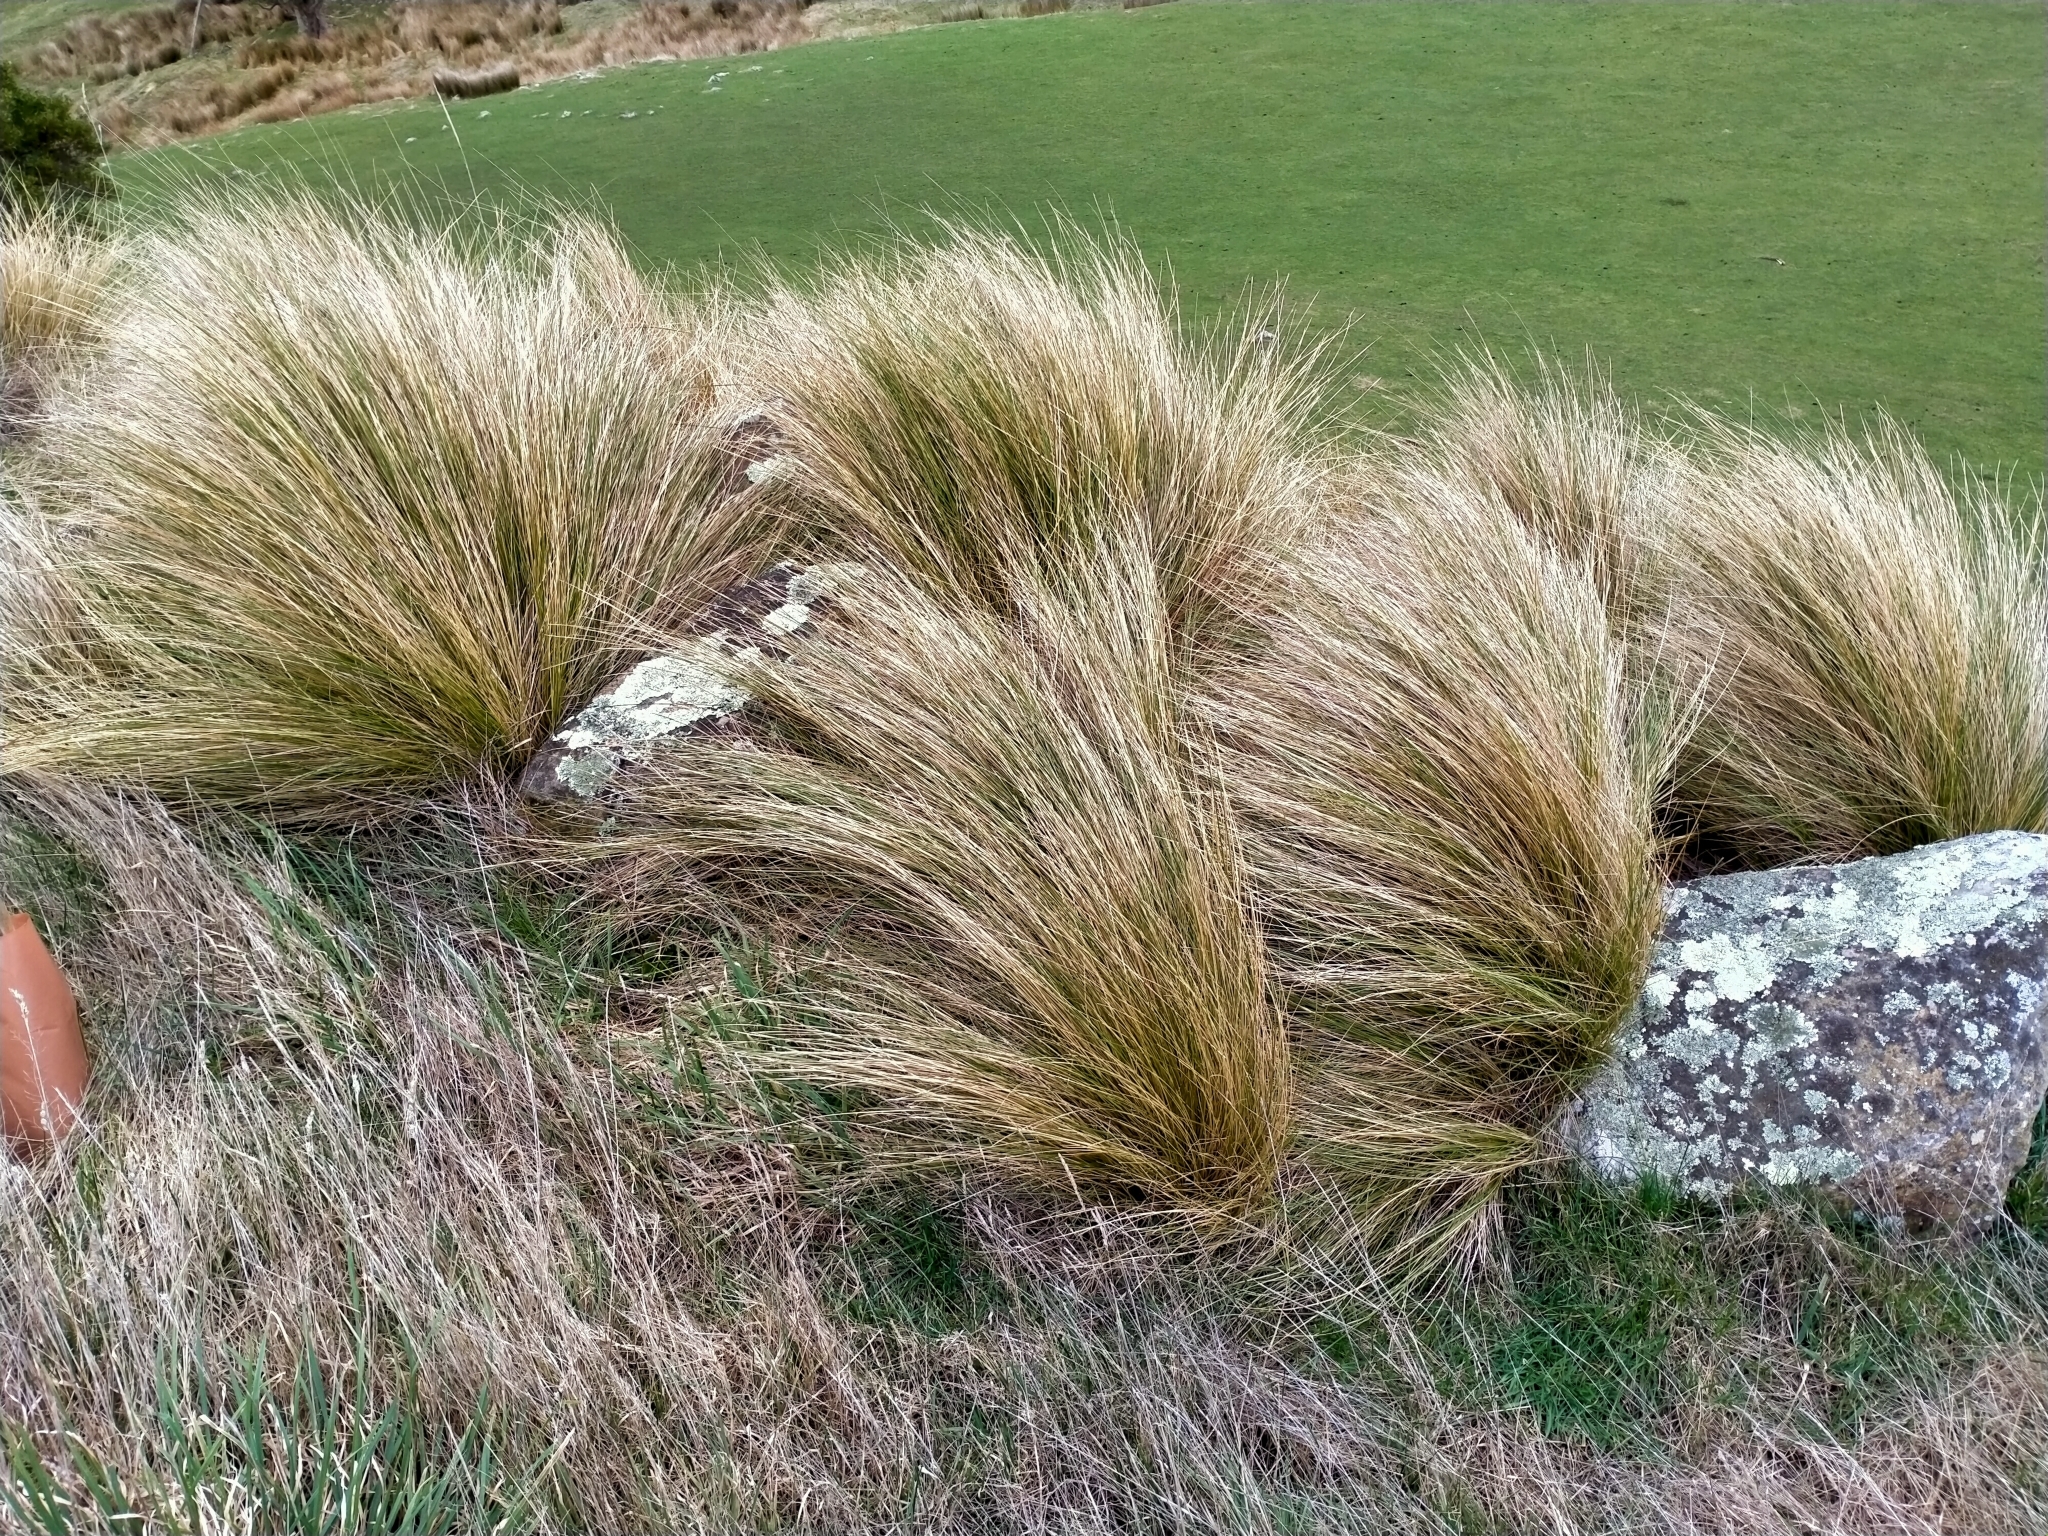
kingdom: Plantae
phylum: Tracheophyta
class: Liliopsida
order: Poales
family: Poaceae
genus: Poa
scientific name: Poa cita
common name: Silver tussock
